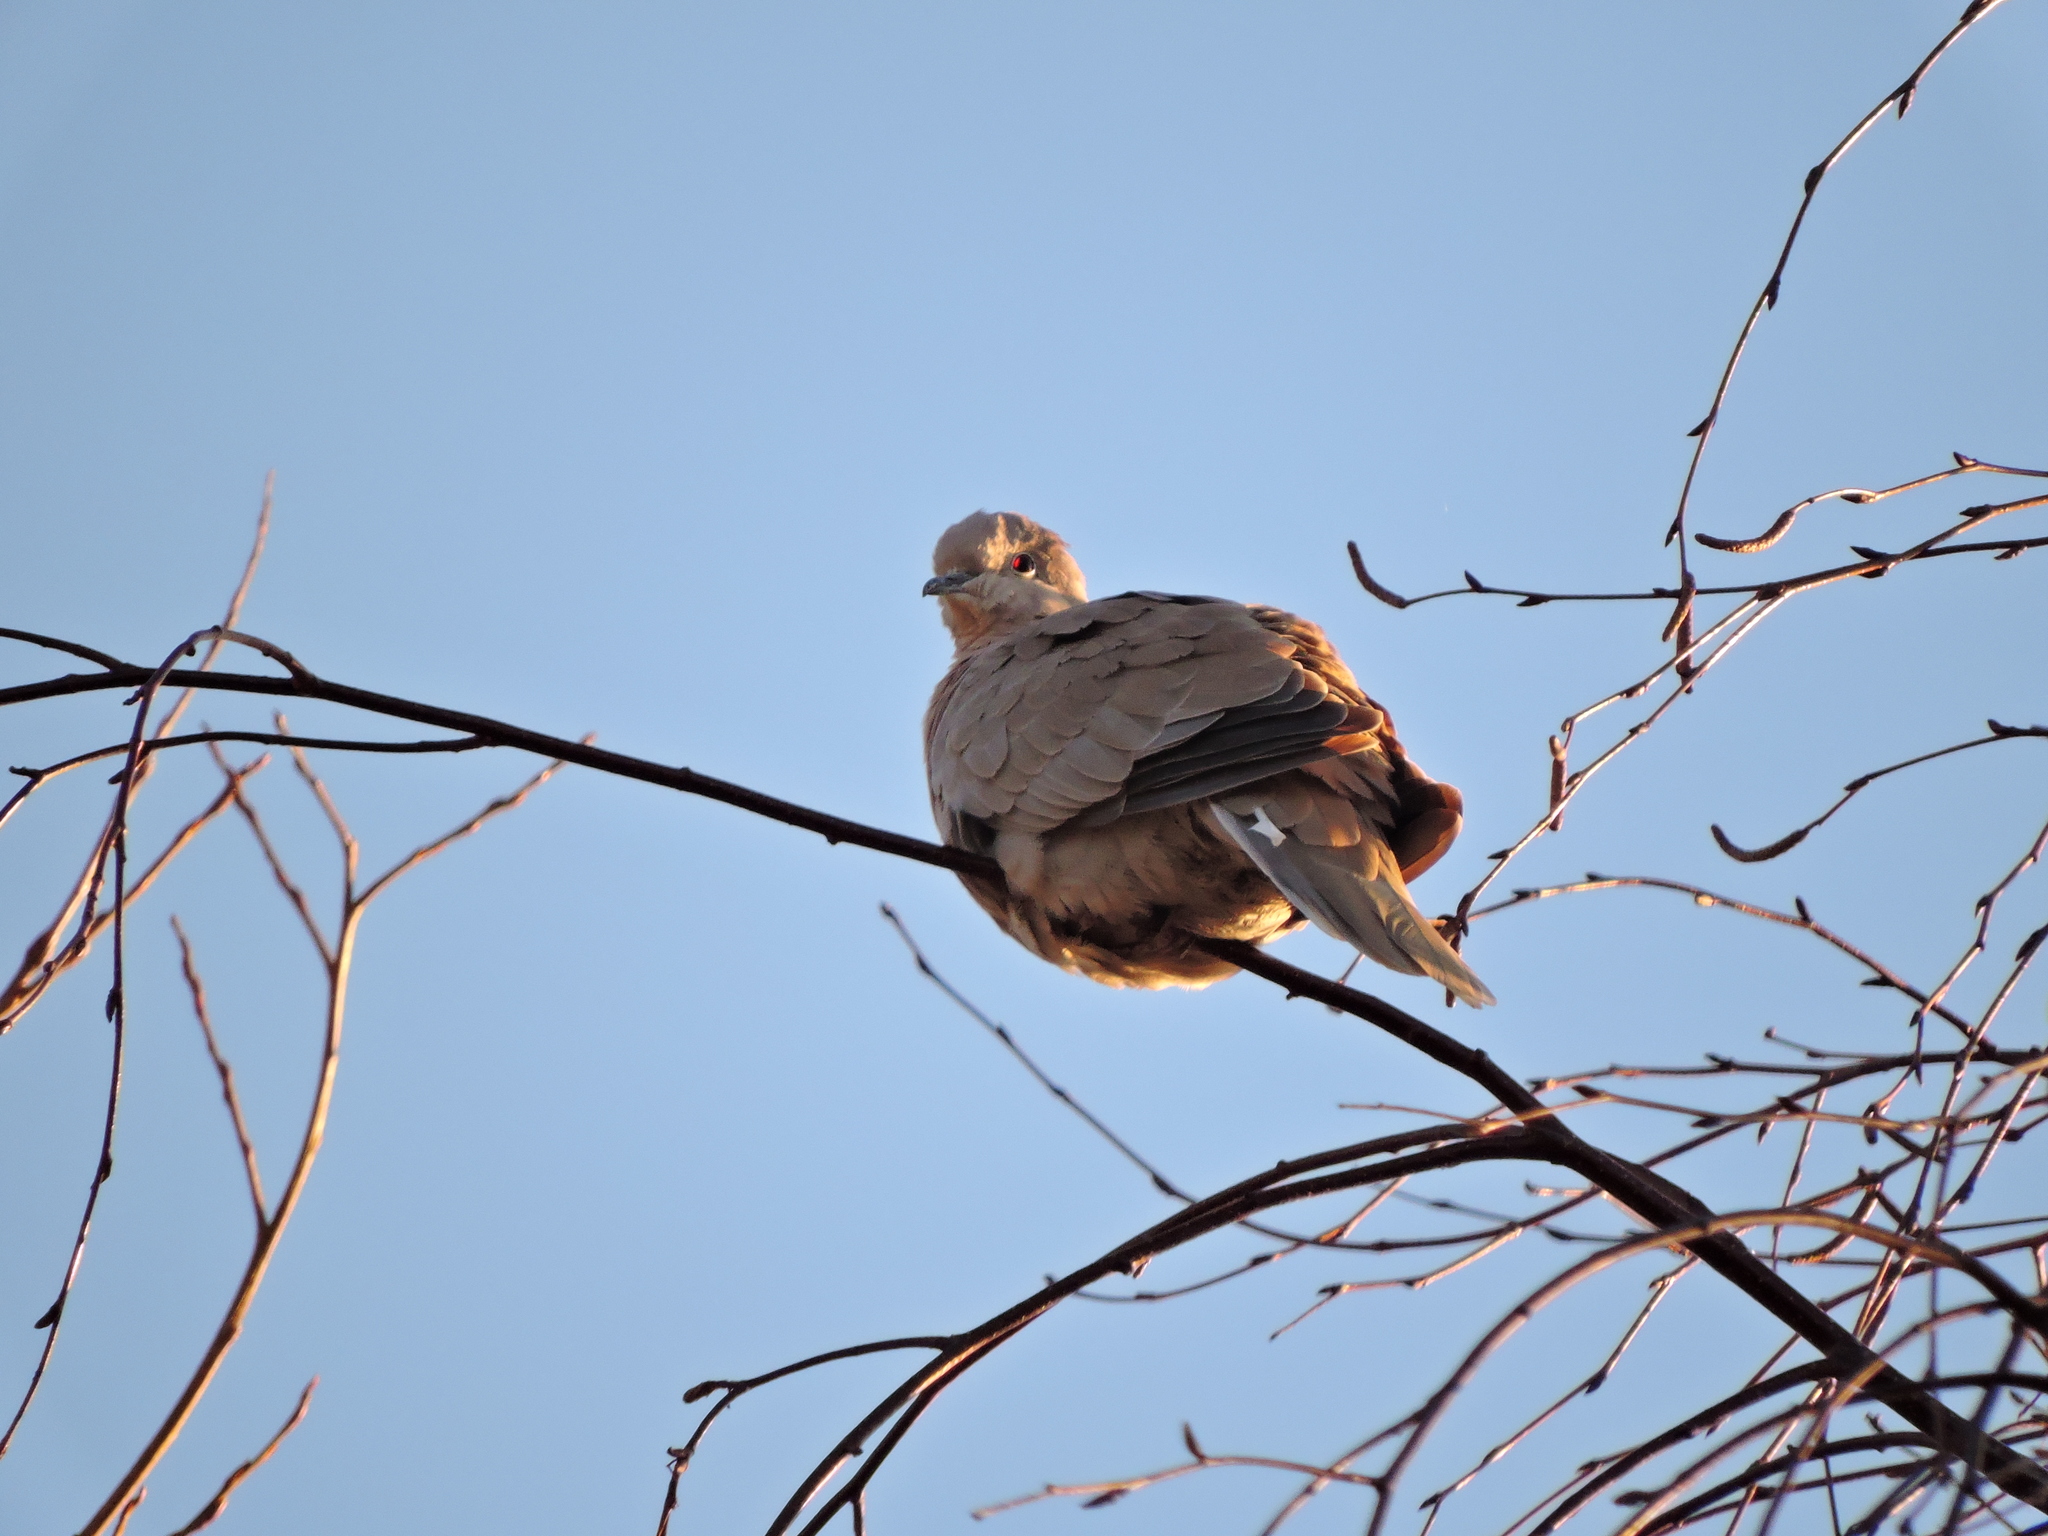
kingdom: Animalia
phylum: Chordata
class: Aves
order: Columbiformes
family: Columbidae
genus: Streptopelia
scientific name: Streptopelia decaocto
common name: Eurasian collared dove
